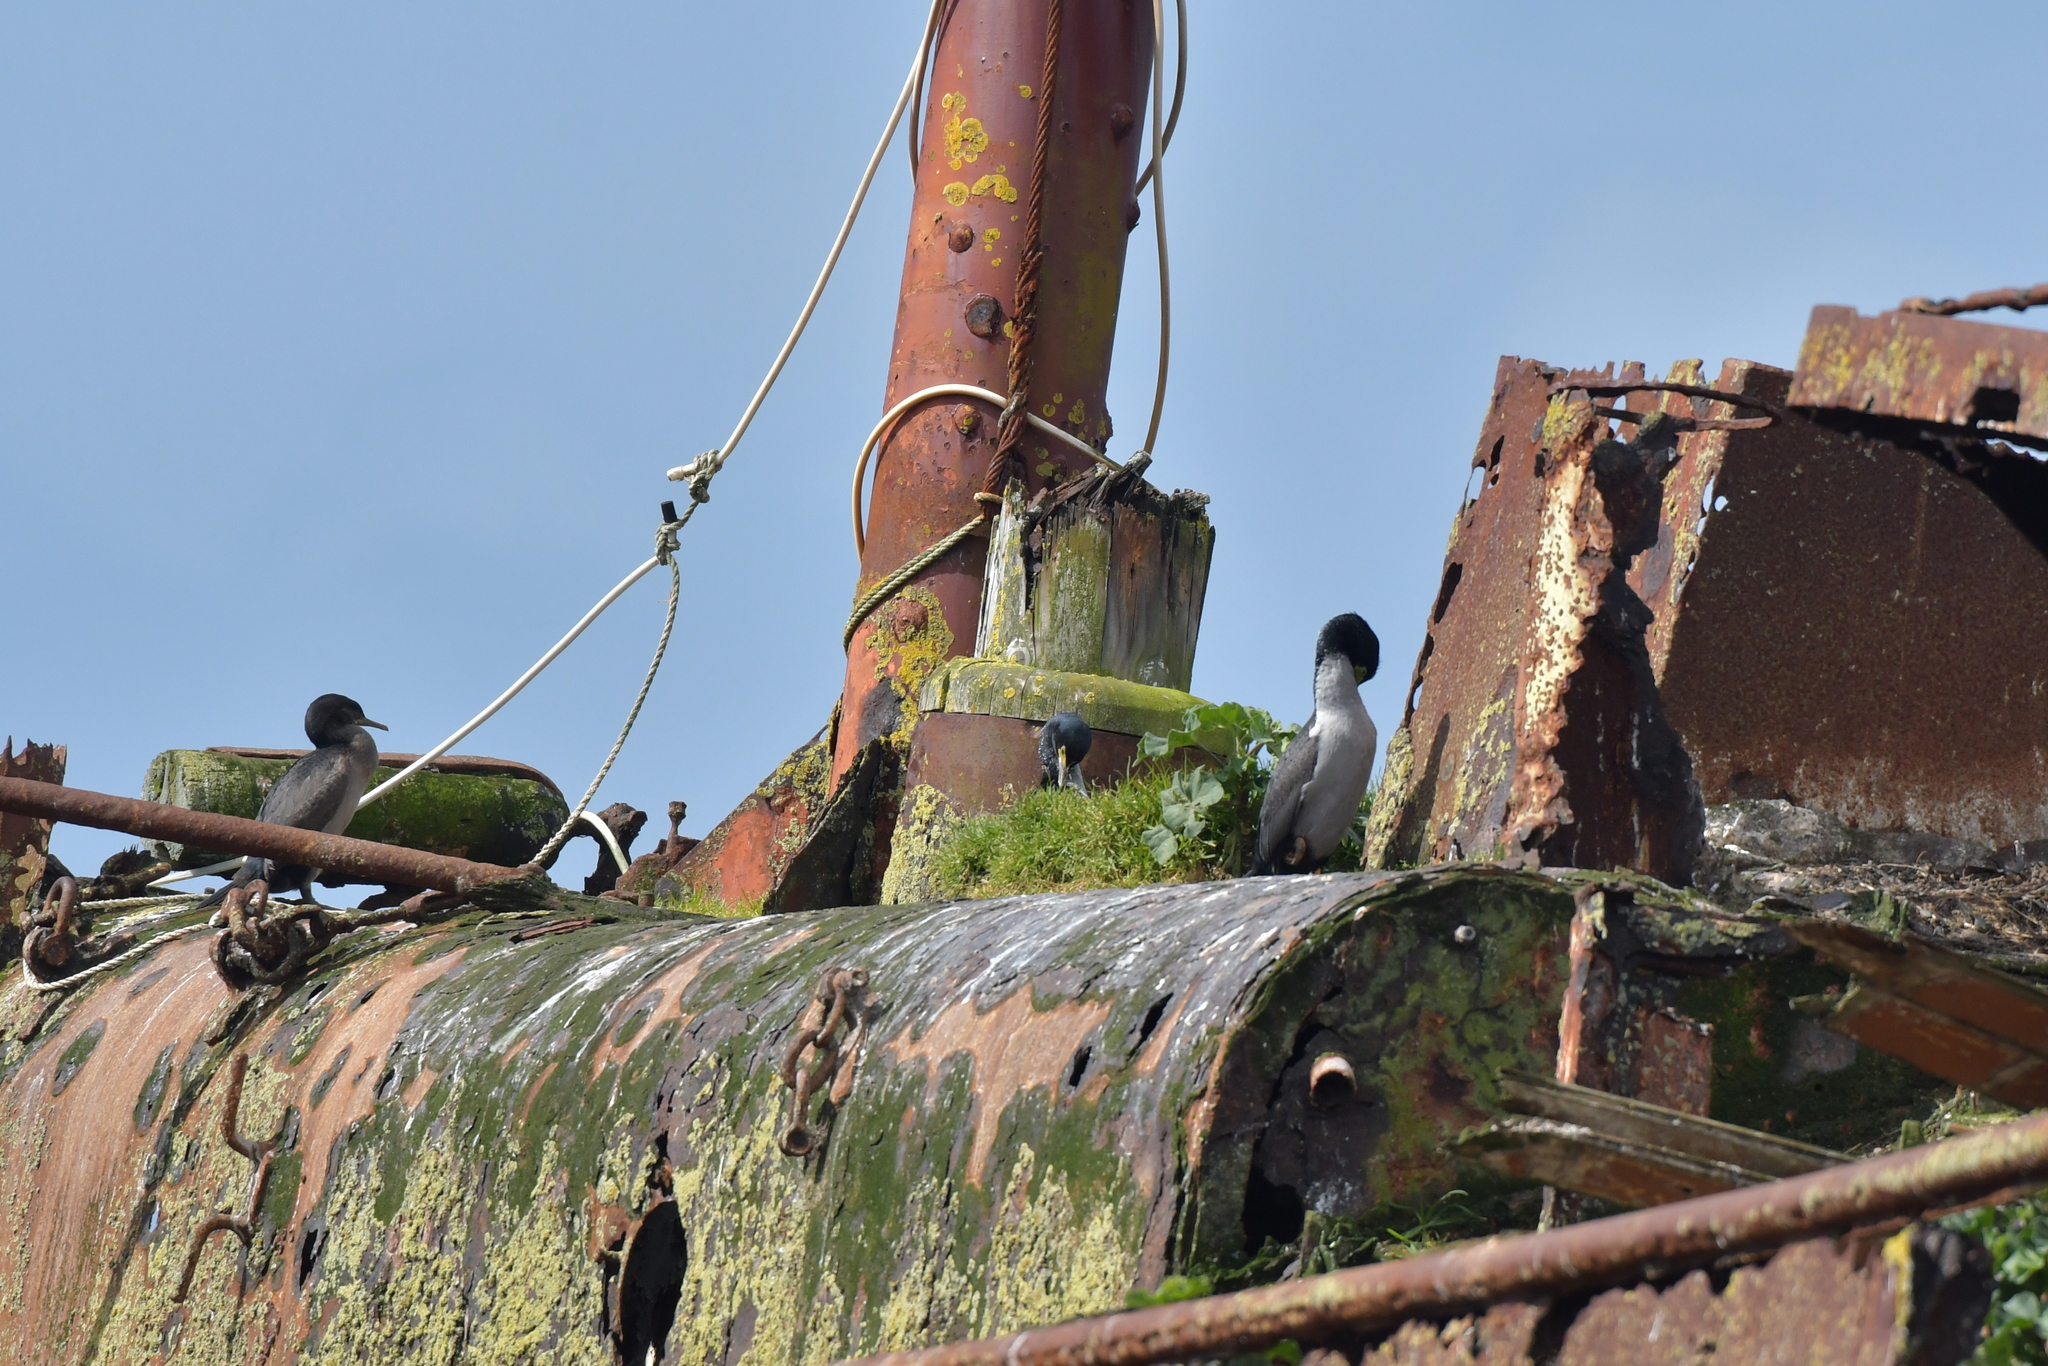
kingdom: Animalia
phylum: Chordata
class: Aves
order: Suliformes
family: Phalacrocoracidae
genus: Phalacrocorax
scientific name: Phalacrocorax featherstoni
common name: Pitt shag
